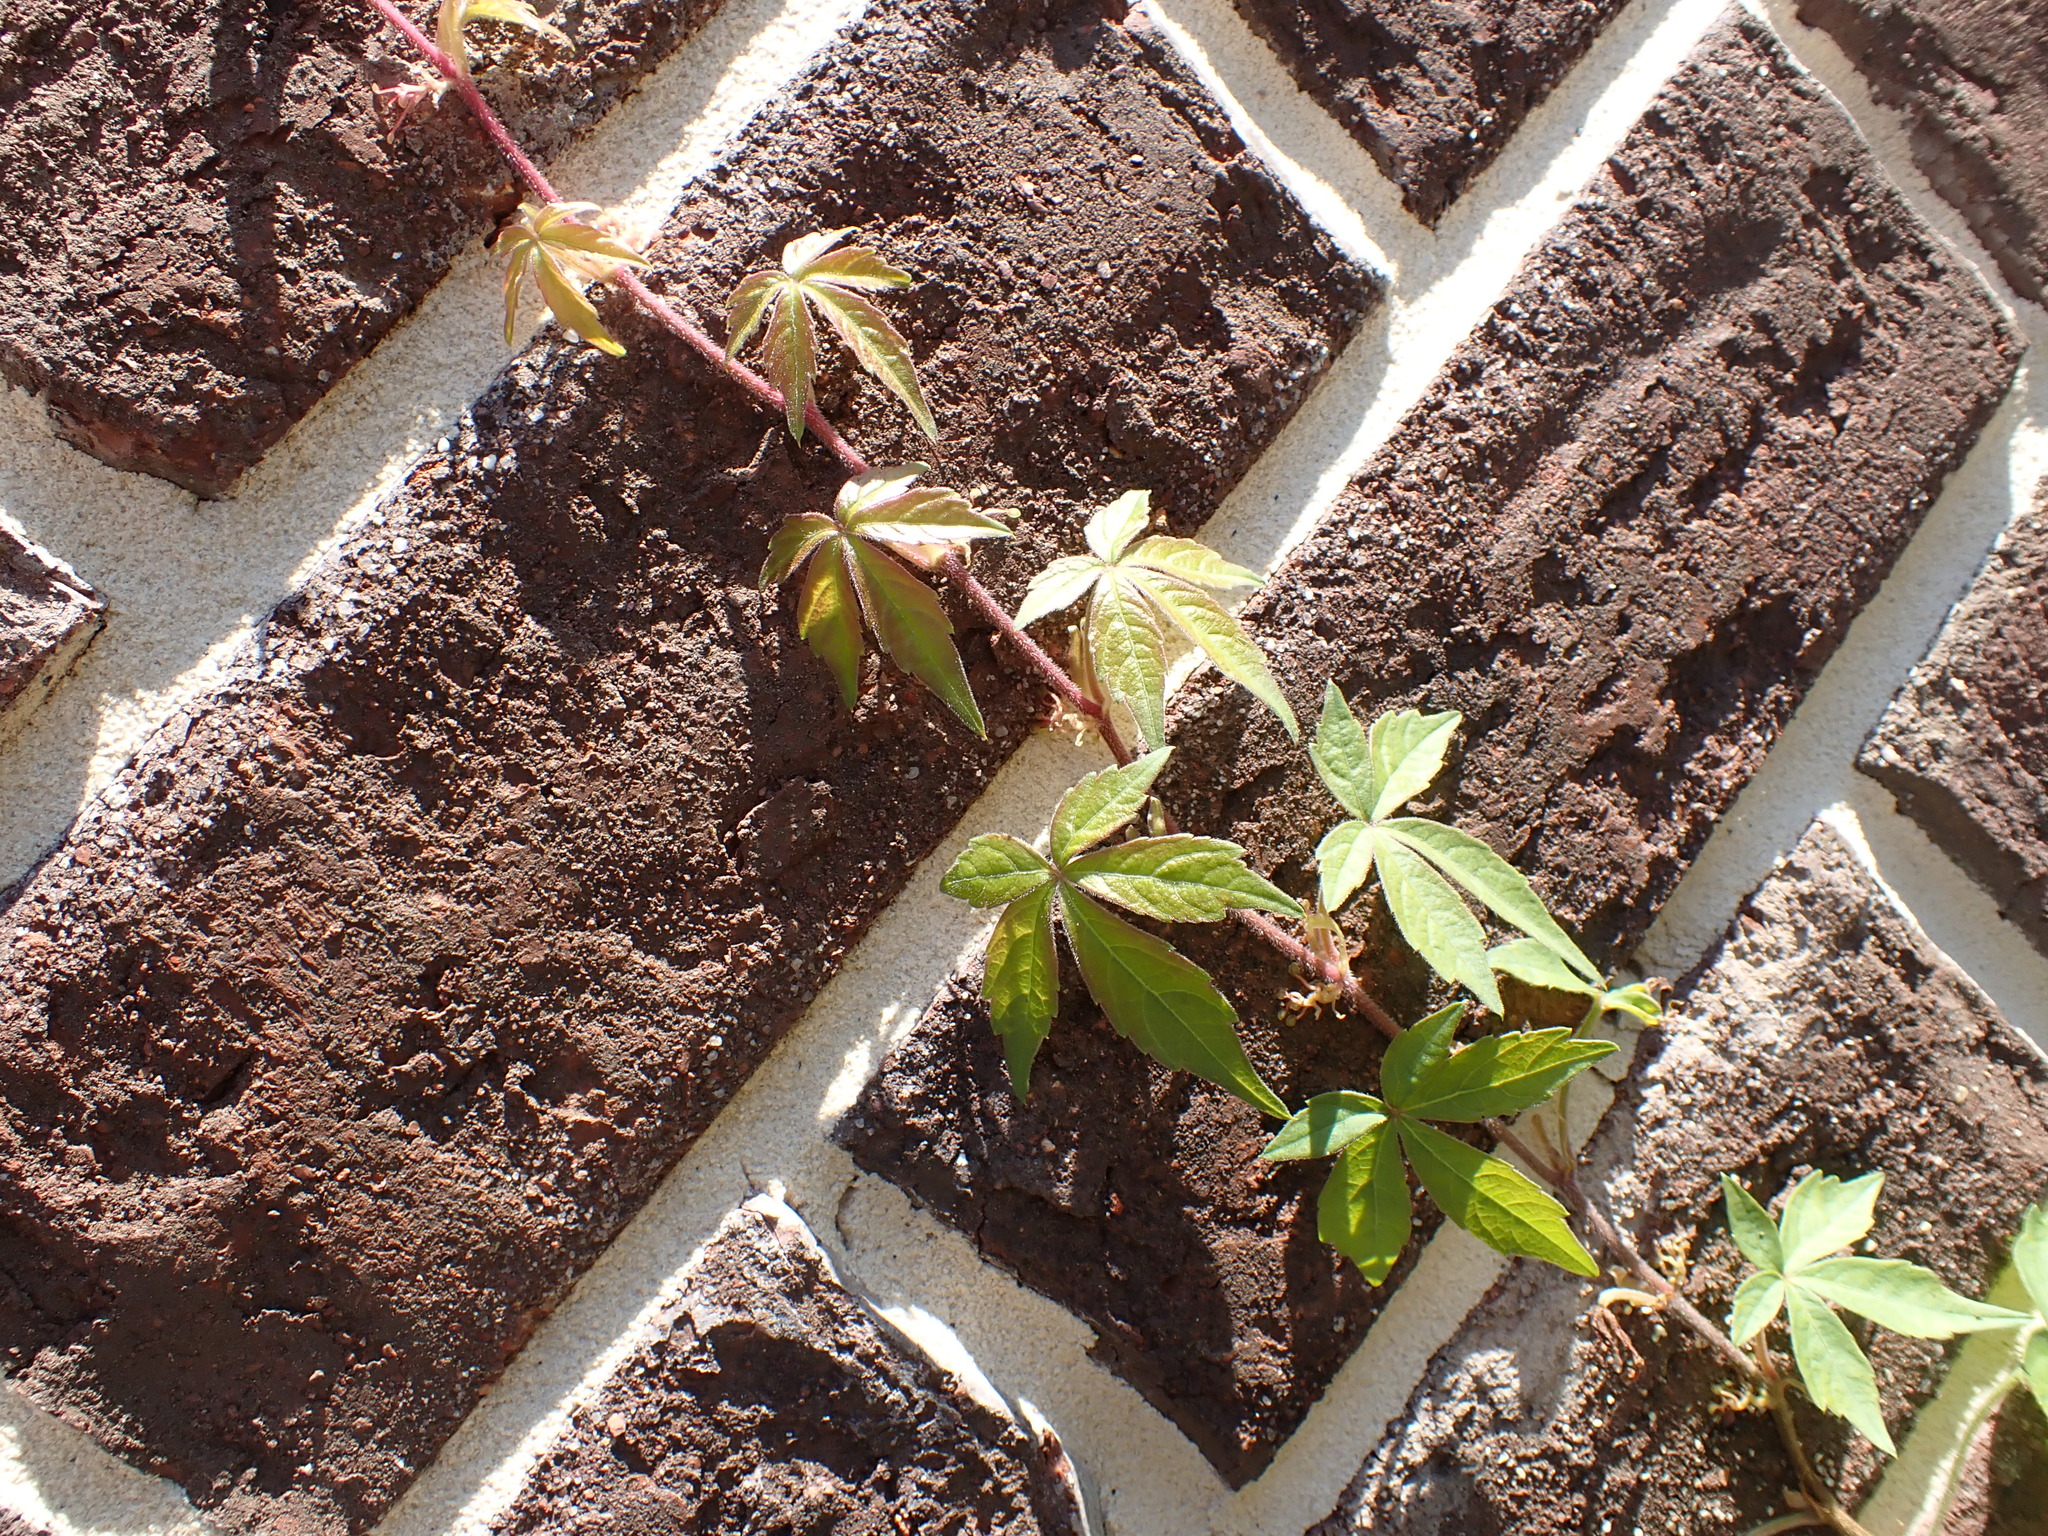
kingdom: Plantae
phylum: Tracheophyta
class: Magnoliopsida
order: Vitales
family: Vitaceae
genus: Parthenocissus
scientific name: Parthenocissus quinquefolia
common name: Virginia-creeper
